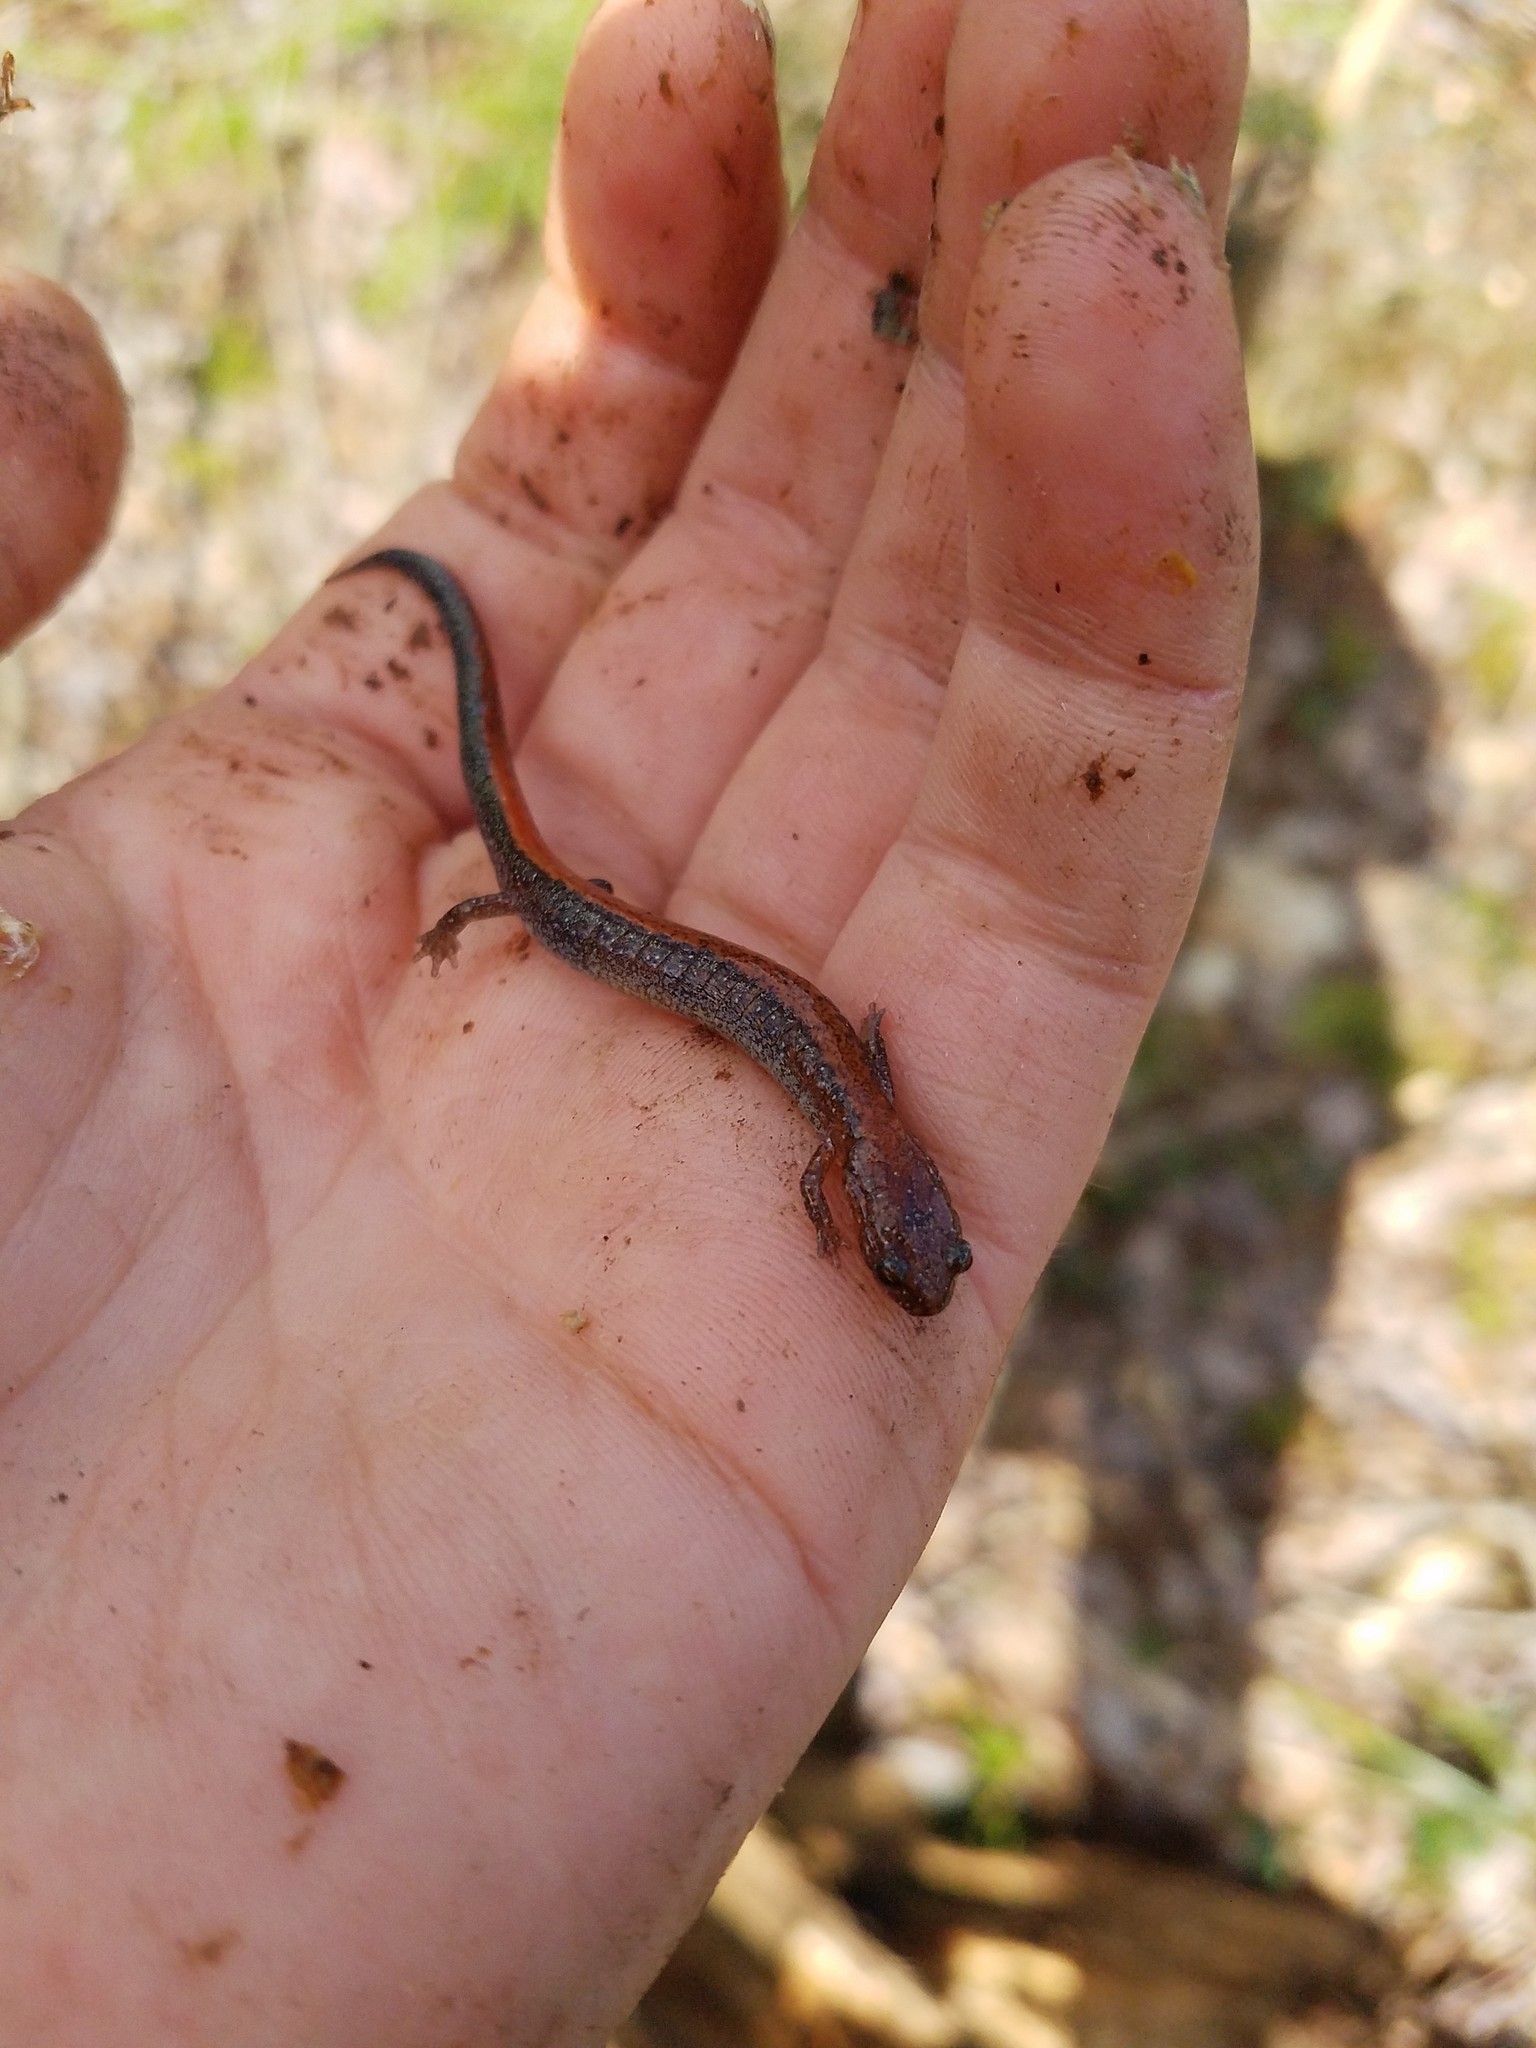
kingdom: Animalia
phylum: Chordata
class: Amphibia
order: Caudata
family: Plethodontidae
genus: Plethodon
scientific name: Plethodon cinereus
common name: Redback salamander
